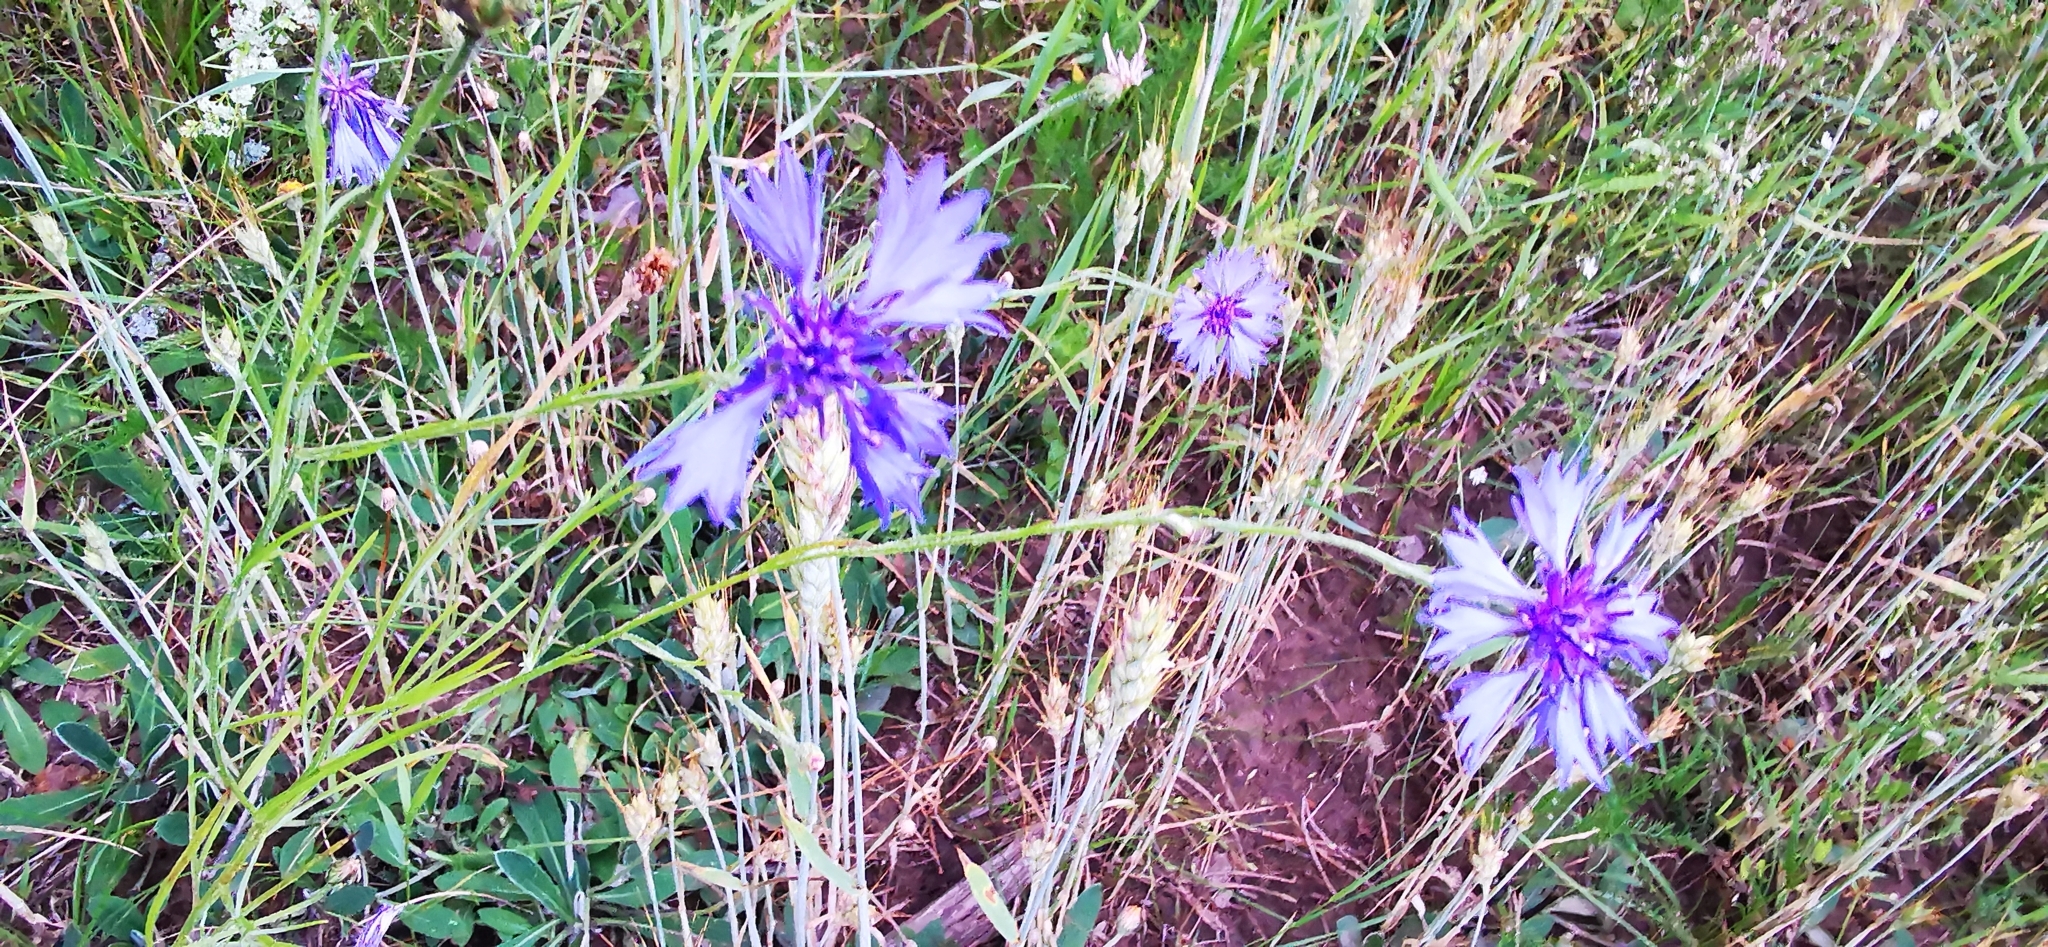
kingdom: Plantae
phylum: Tracheophyta
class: Magnoliopsida
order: Asterales
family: Asteraceae
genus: Centaurea
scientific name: Centaurea cyanus
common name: Cornflower
